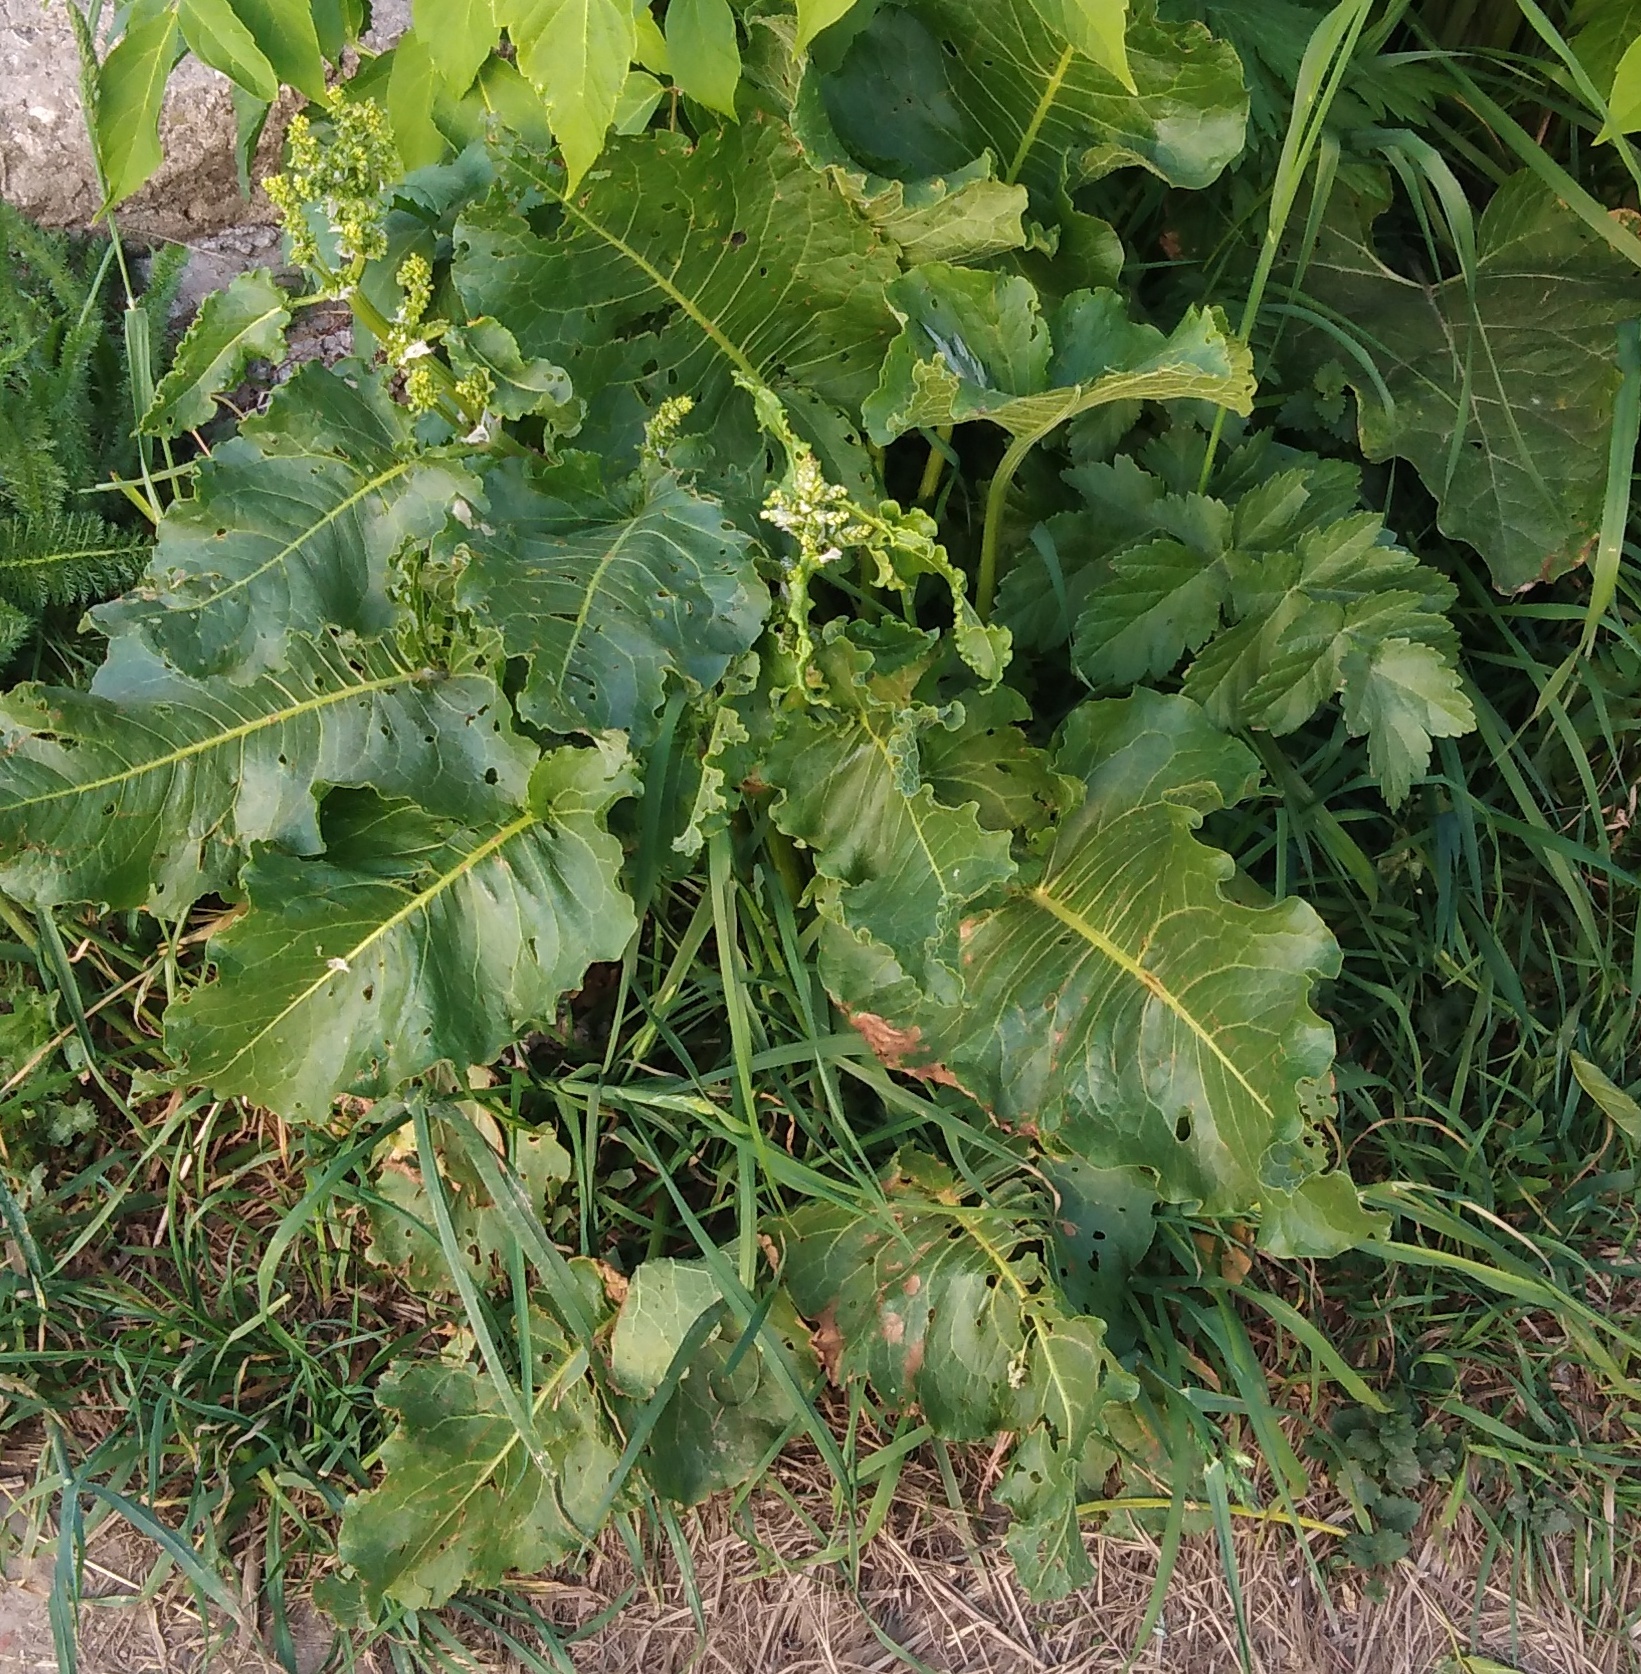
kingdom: Plantae
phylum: Tracheophyta
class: Magnoliopsida
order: Caryophyllales
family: Polygonaceae
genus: Rumex
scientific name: Rumex confertus
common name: Russian dock
